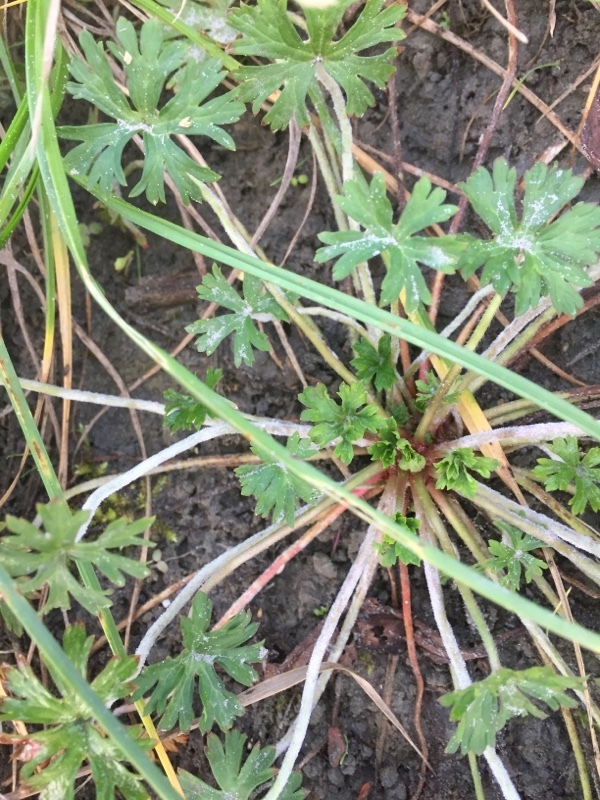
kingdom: Plantae
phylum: Tracheophyta
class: Magnoliopsida
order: Geraniales
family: Geraniaceae
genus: Geranium
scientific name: Geranium dissectum
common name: Cut-leaved crane's-bill
